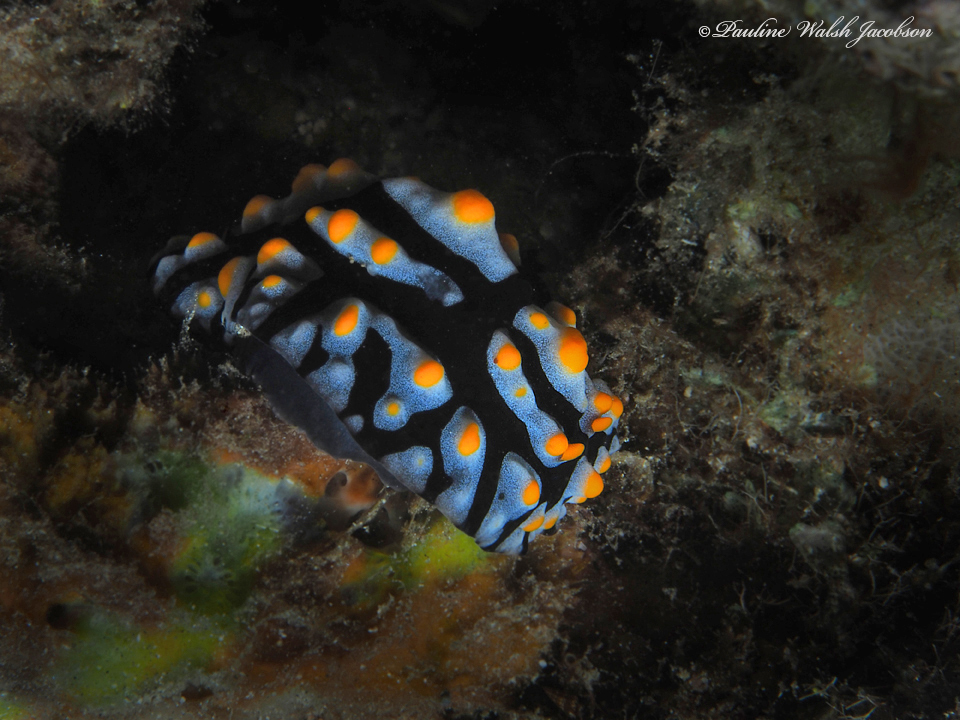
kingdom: Animalia
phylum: Mollusca
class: Gastropoda
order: Nudibranchia
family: Phyllidiidae
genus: Phyllidia
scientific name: Phyllidia varicosa
